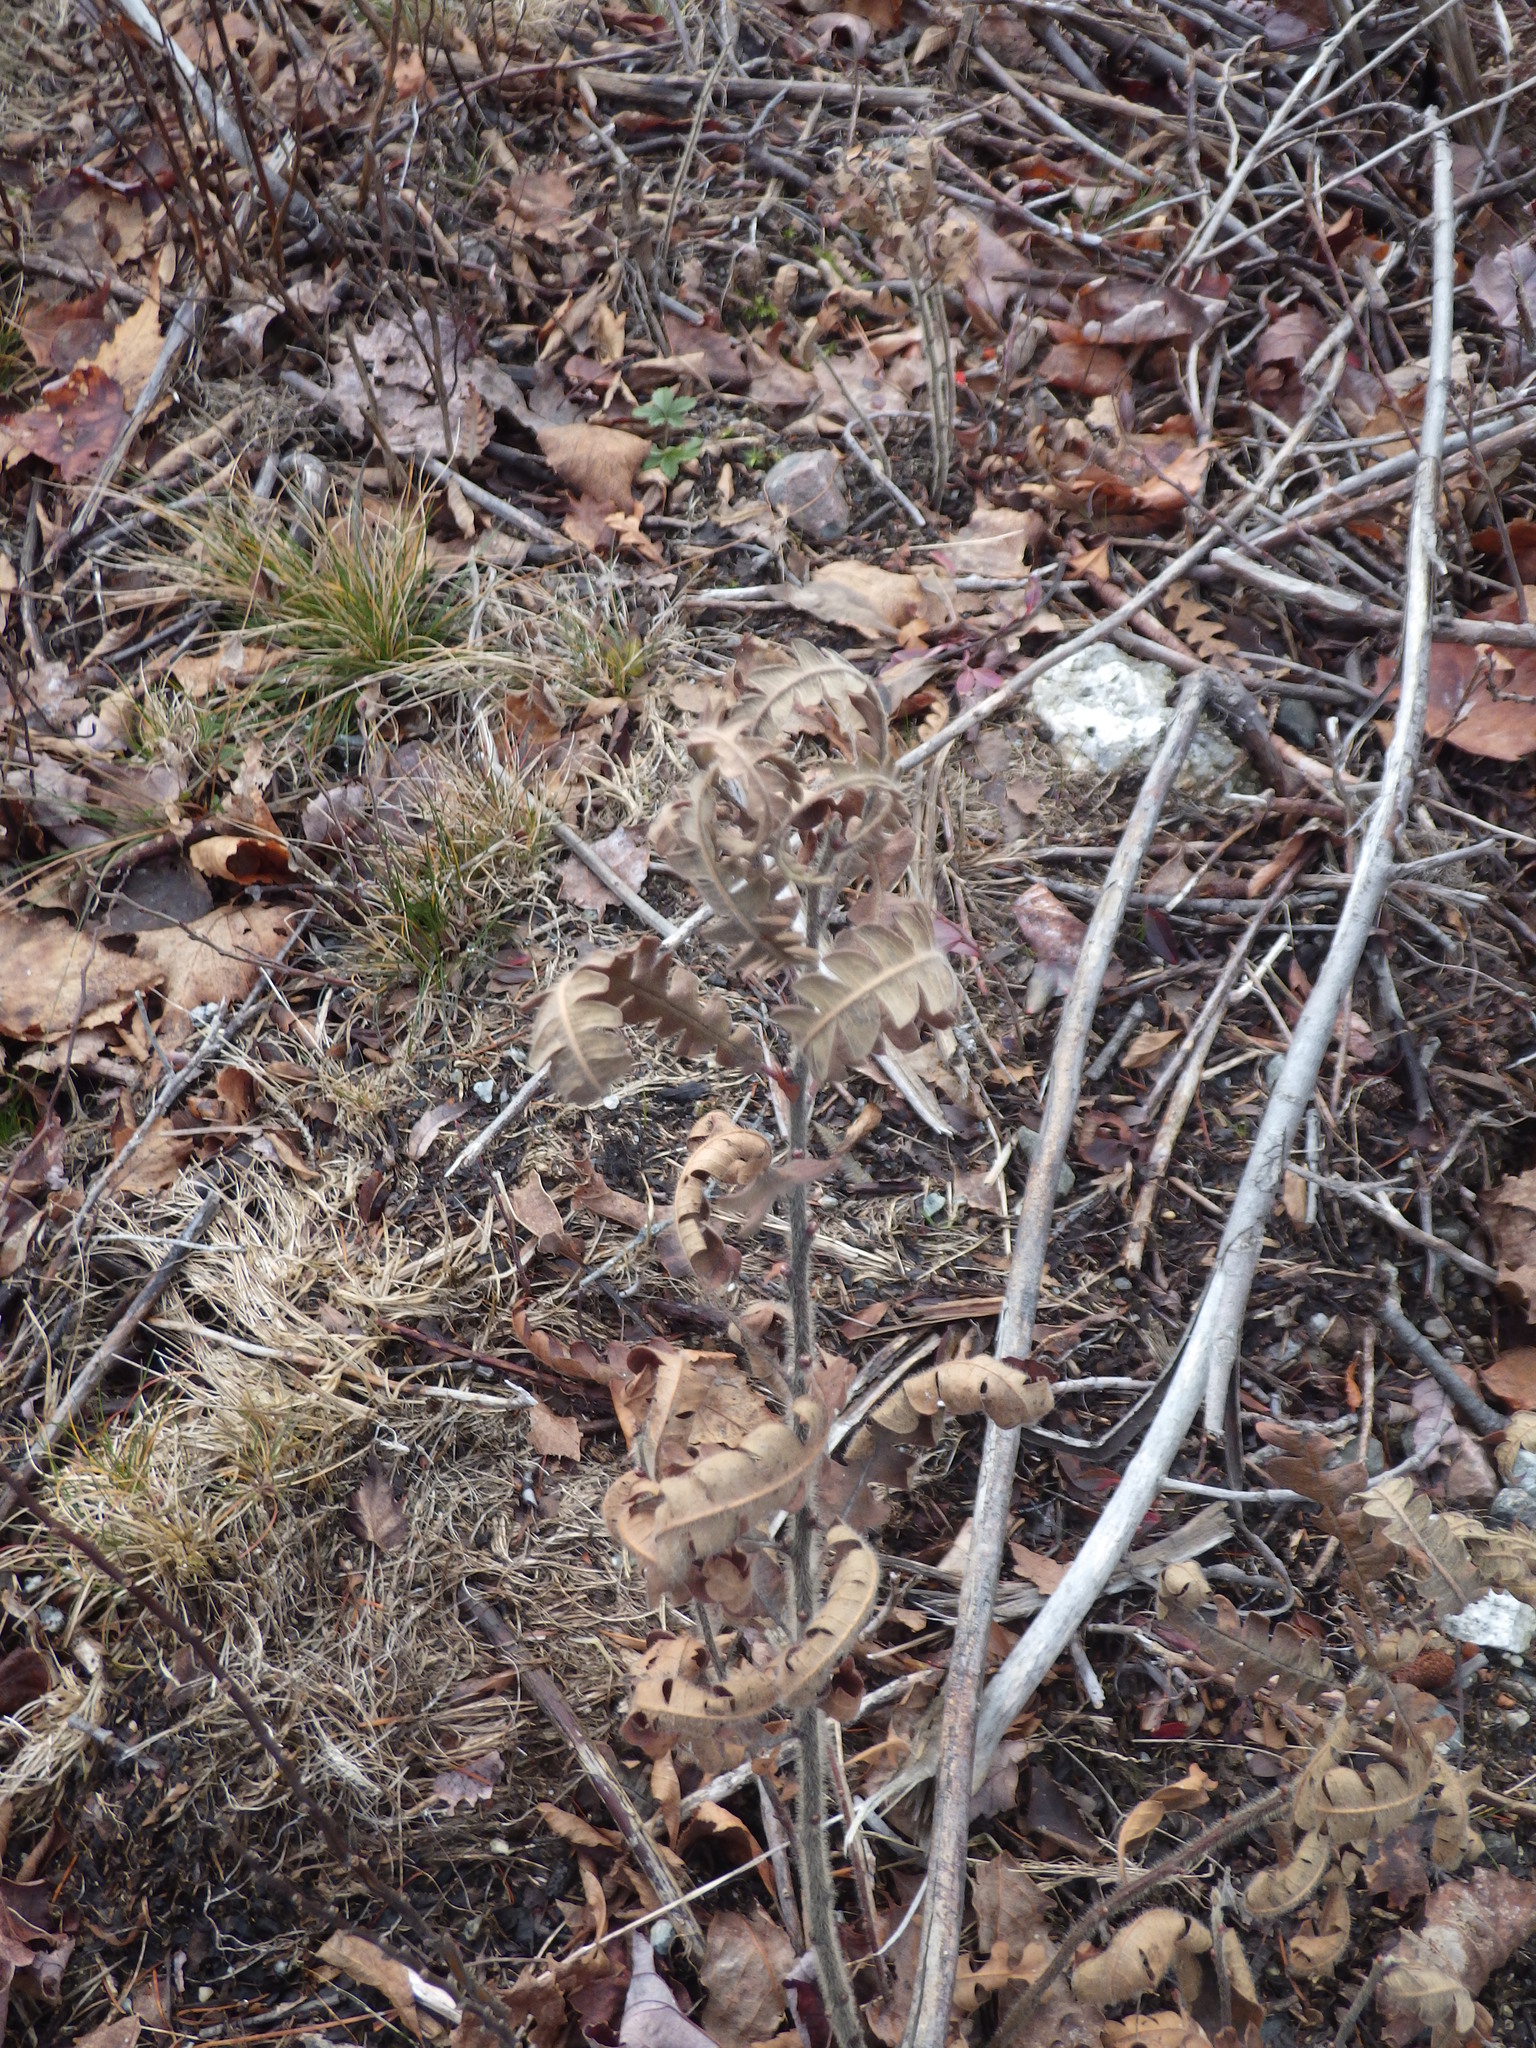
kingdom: Plantae
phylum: Tracheophyta
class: Magnoliopsida
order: Fagales
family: Myricaceae
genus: Comptonia
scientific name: Comptonia peregrina
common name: Sweet-fern
